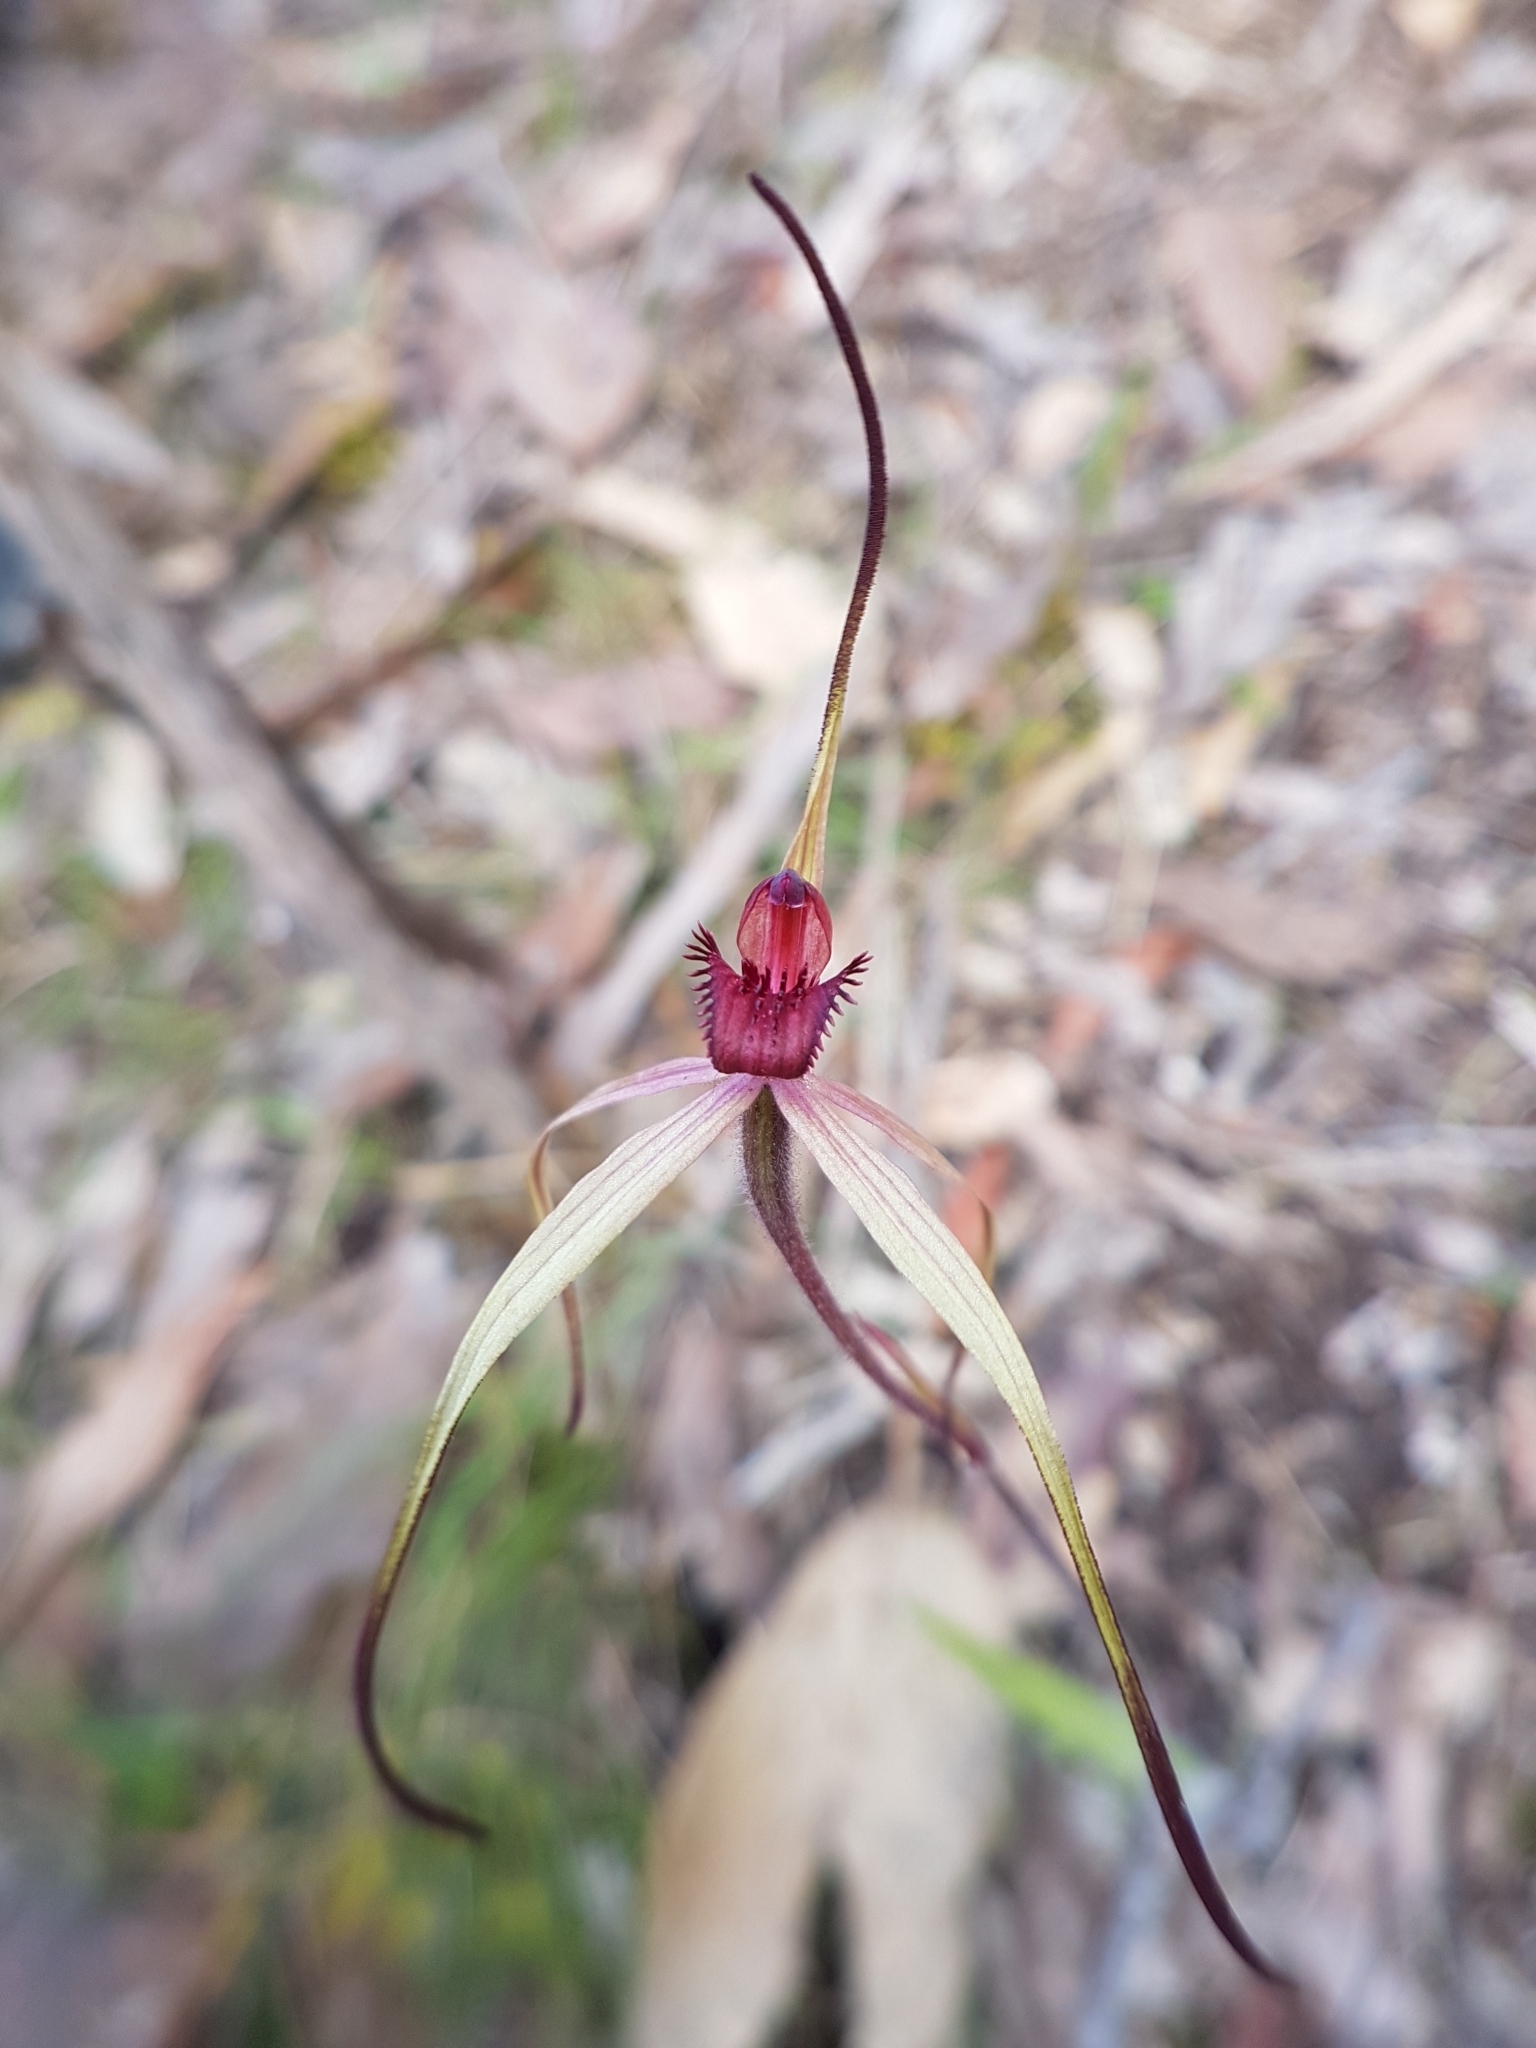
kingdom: Plantae
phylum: Tracheophyta
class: Liliopsida
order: Asparagales
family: Orchidaceae
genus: Caladenia
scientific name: Caladenia oenochila
